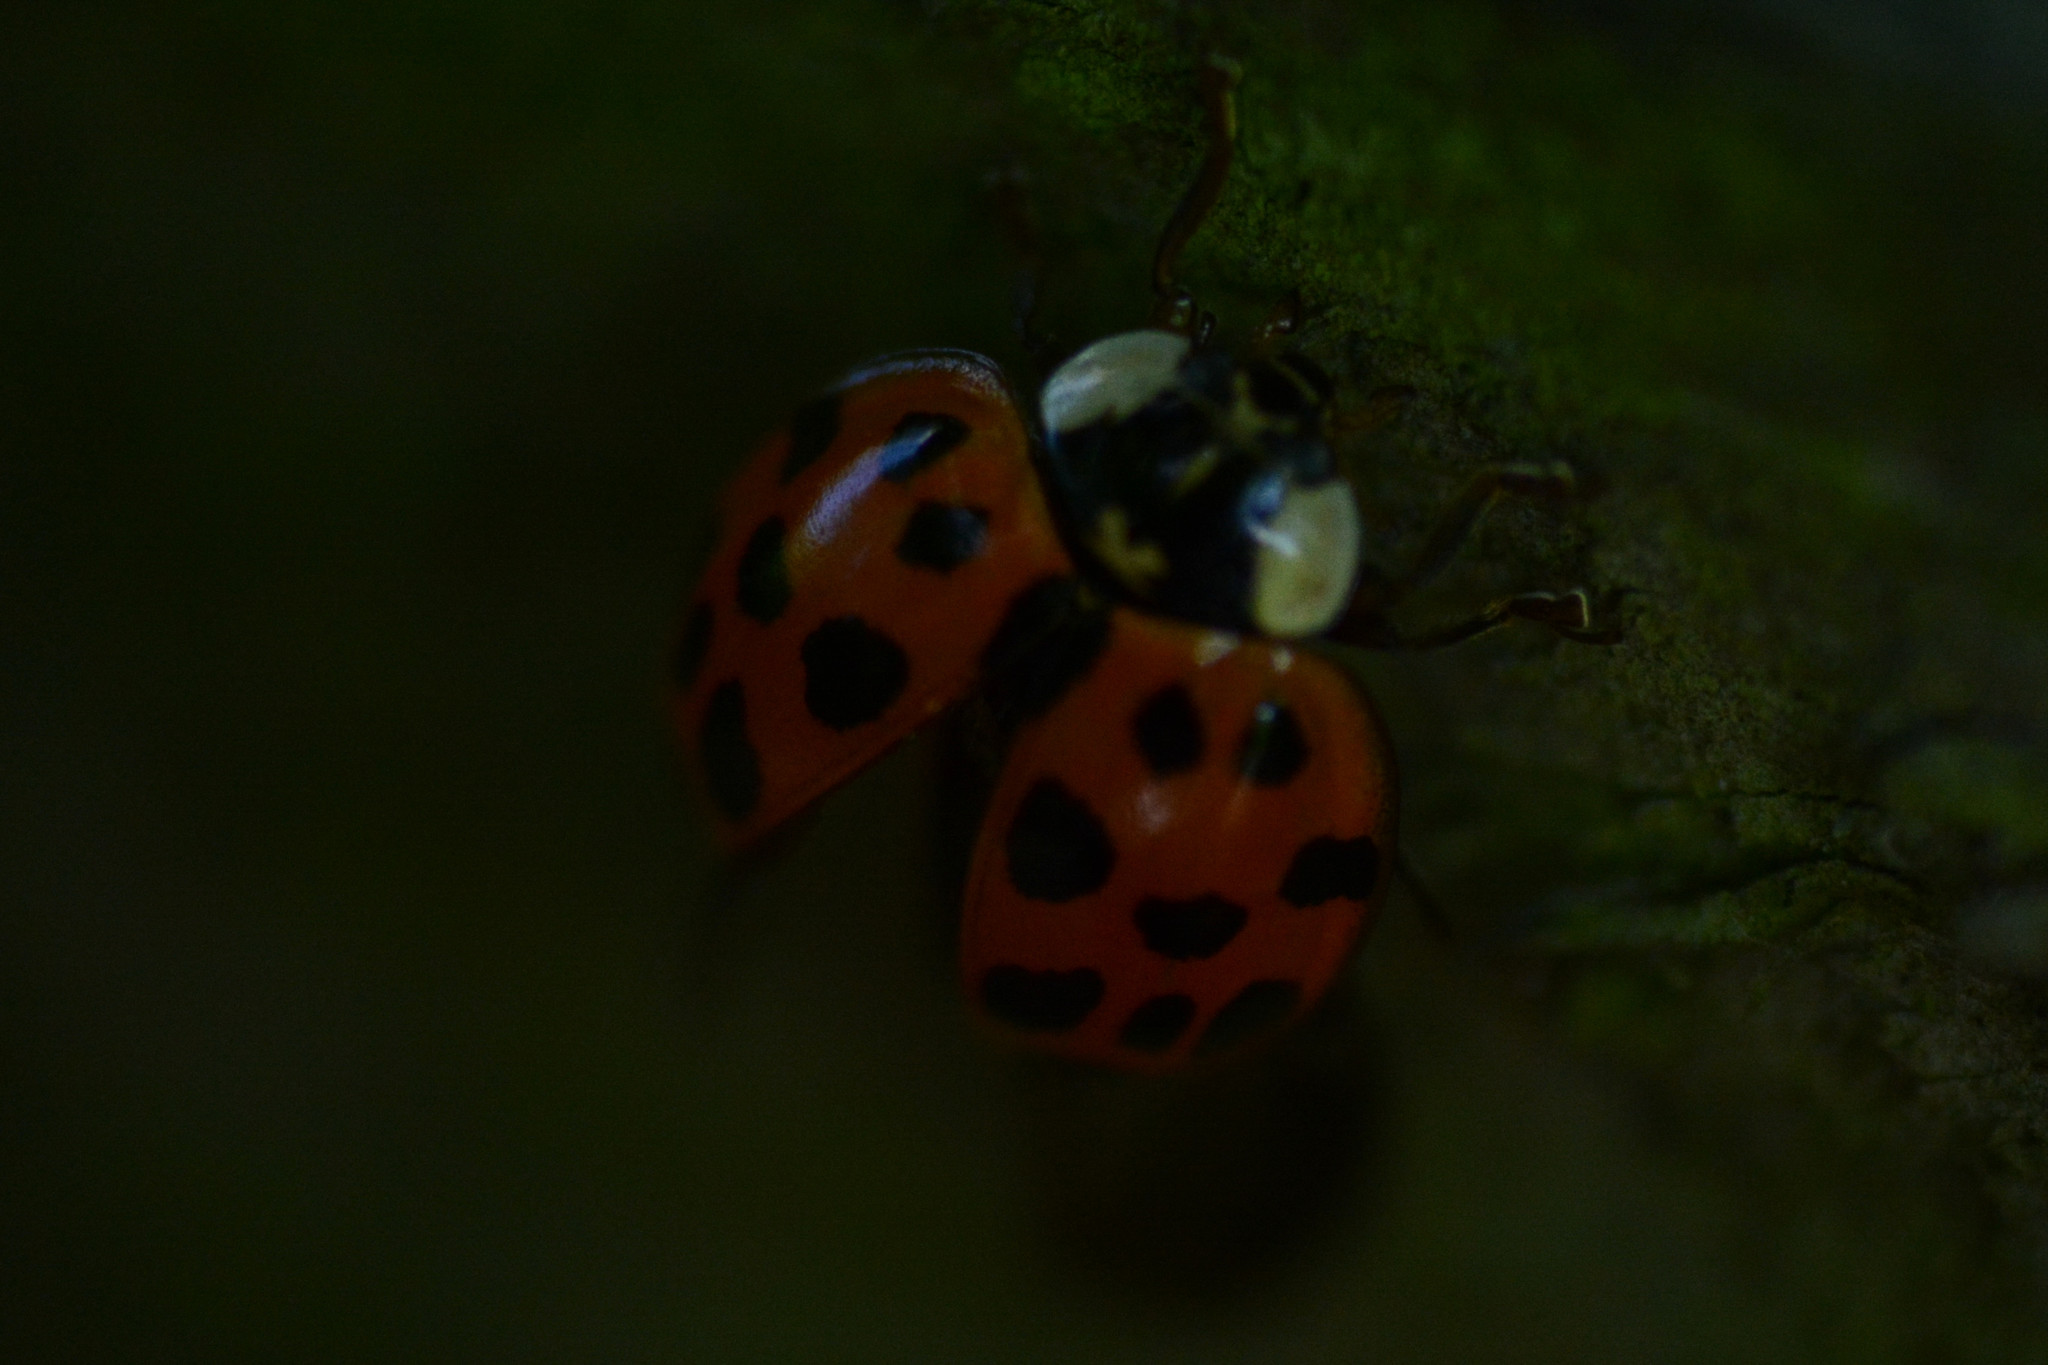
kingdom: Animalia
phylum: Arthropoda
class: Insecta
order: Coleoptera
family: Coccinellidae
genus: Harmonia
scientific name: Harmonia axyridis
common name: Harlequin ladybird
